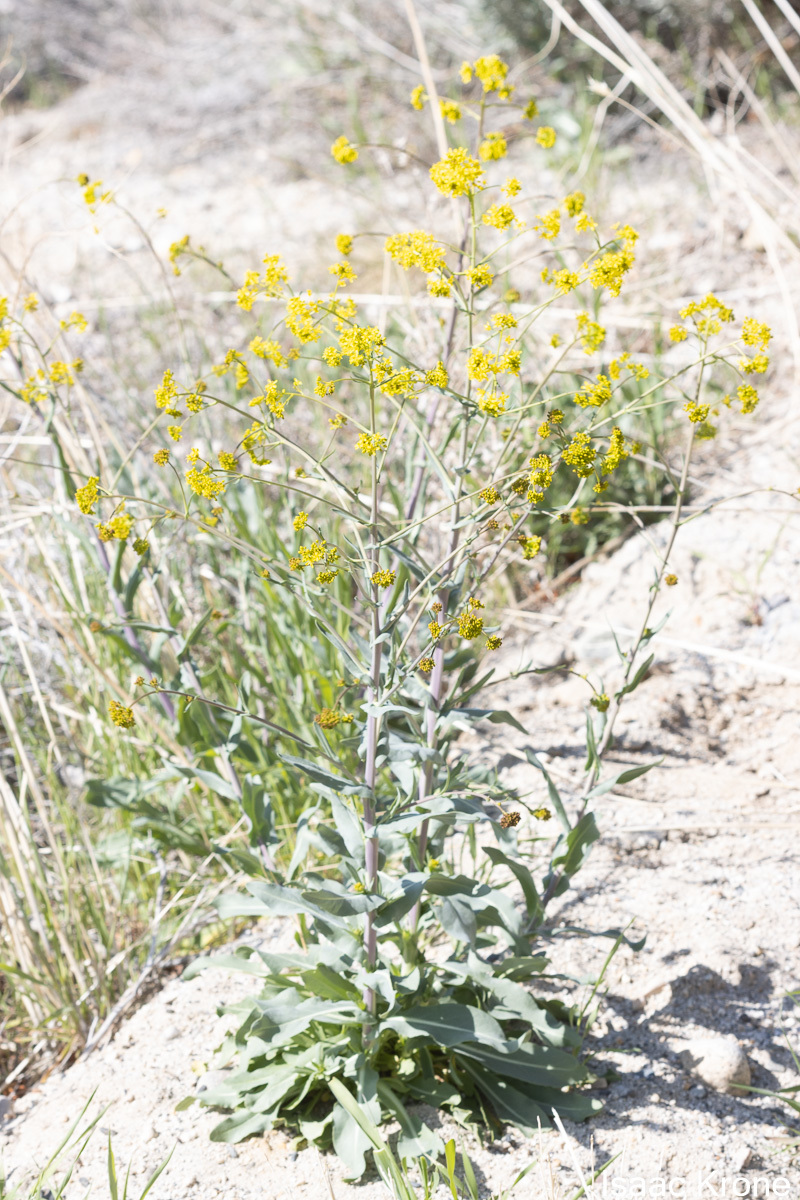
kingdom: Plantae
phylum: Tracheophyta
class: Magnoliopsida
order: Brassicales
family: Brassicaceae
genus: Isatis
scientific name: Isatis tinctoria
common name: Woad
